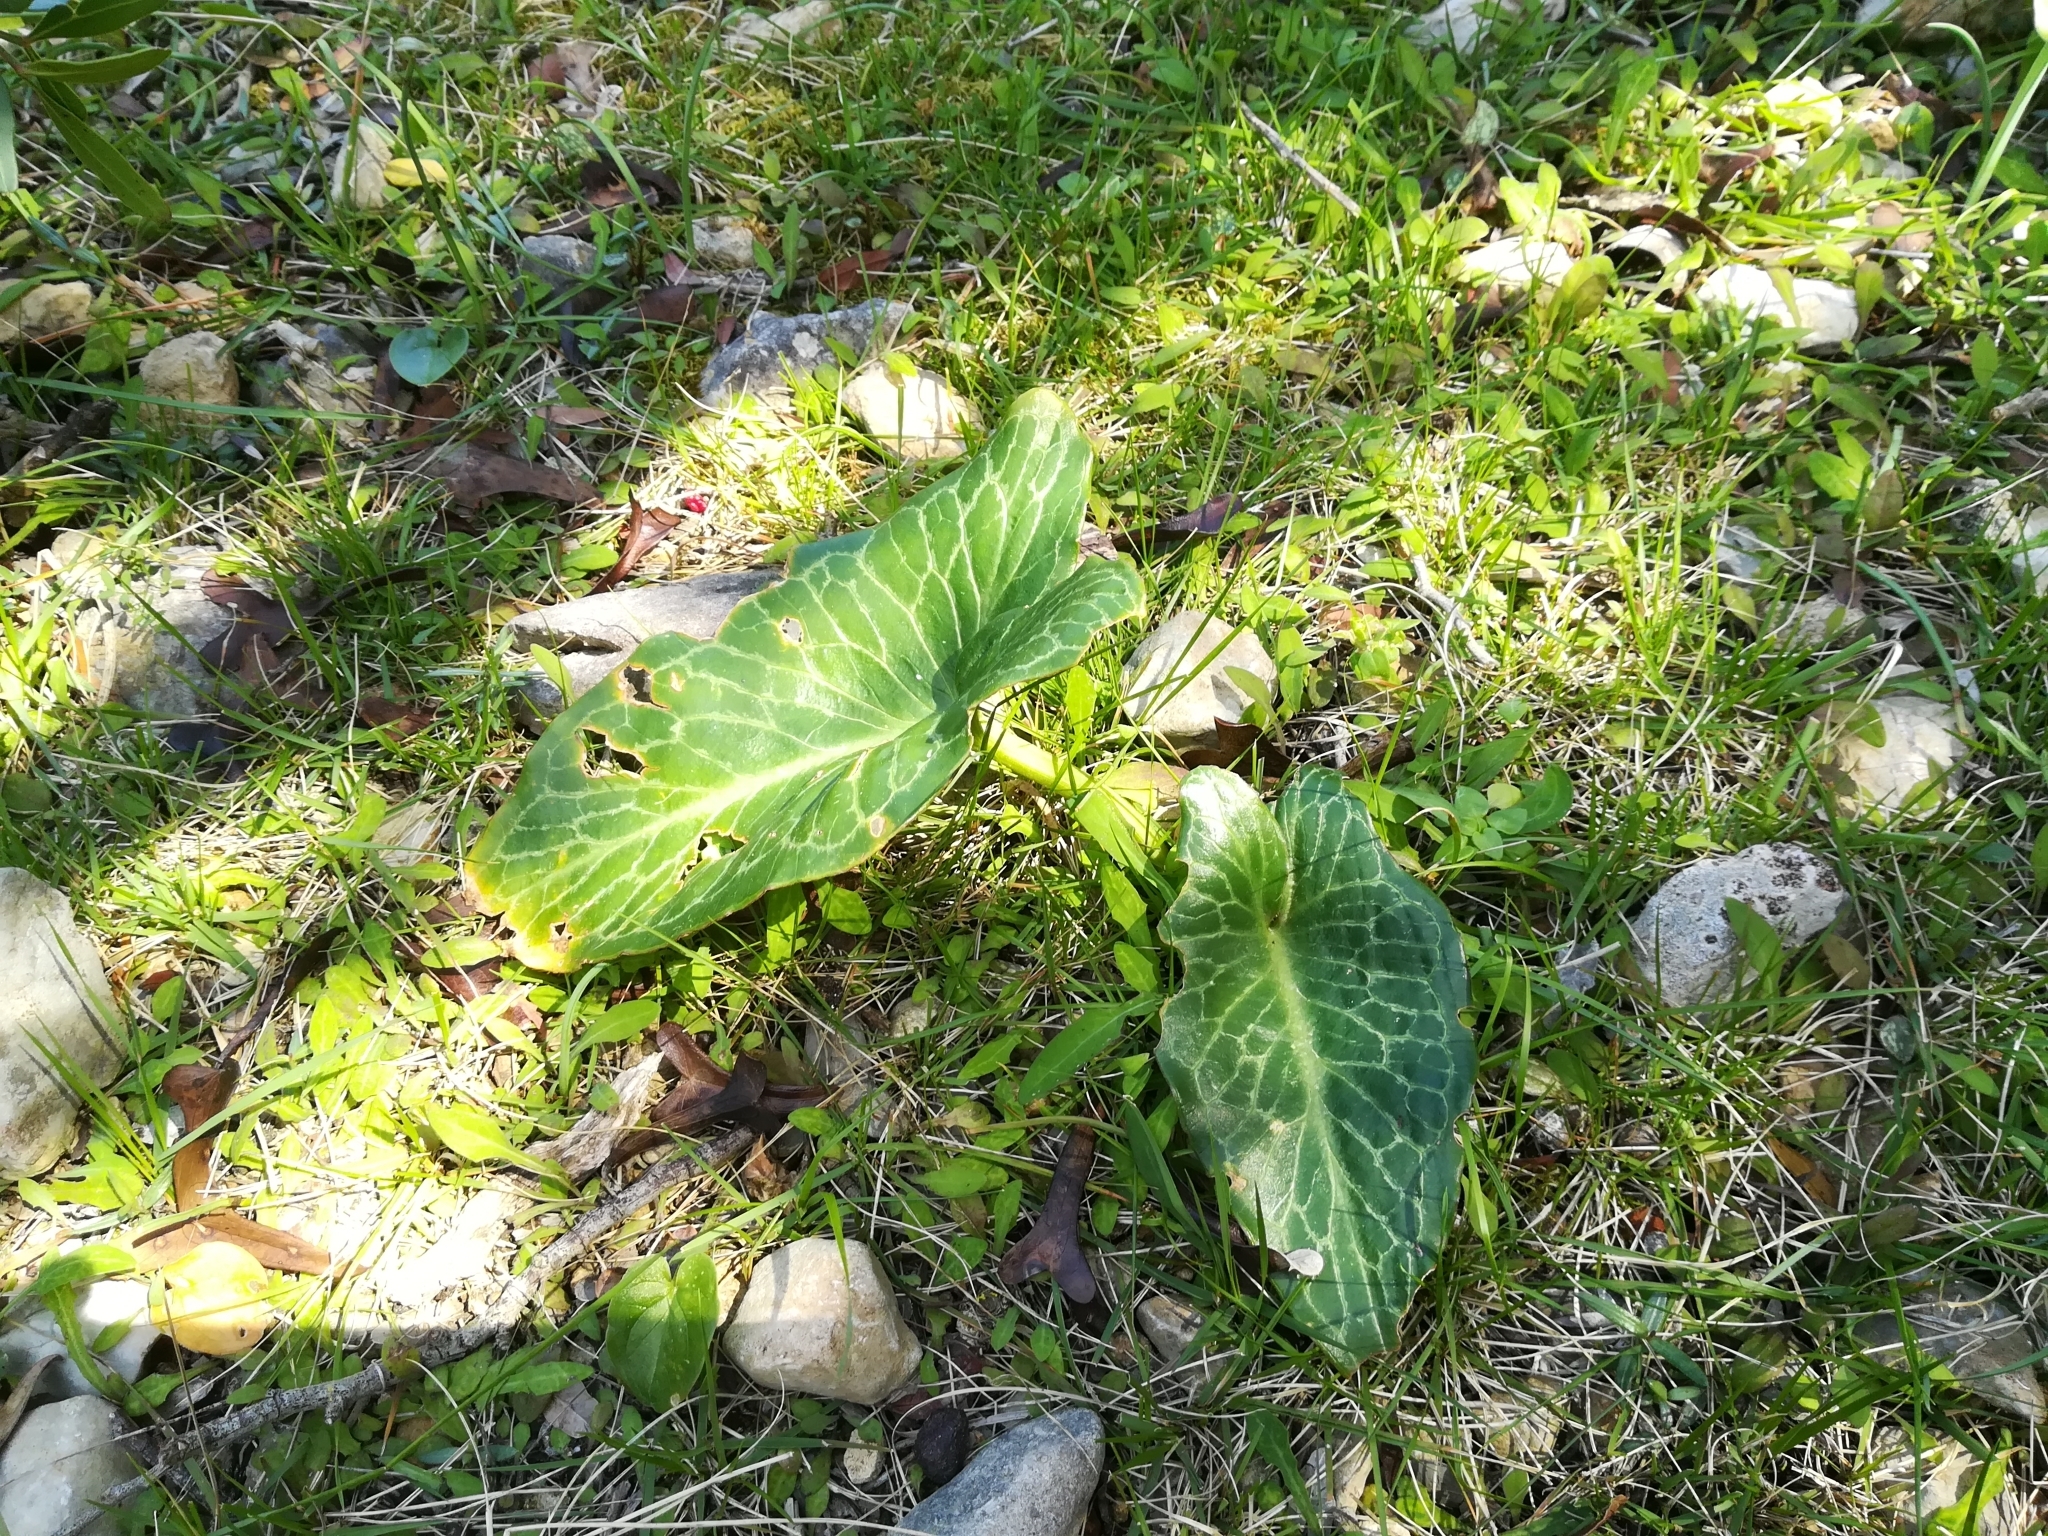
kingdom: Plantae
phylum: Tracheophyta
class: Liliopsida
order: Alismatales
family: Araceae
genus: Arum
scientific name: Arum pictum
